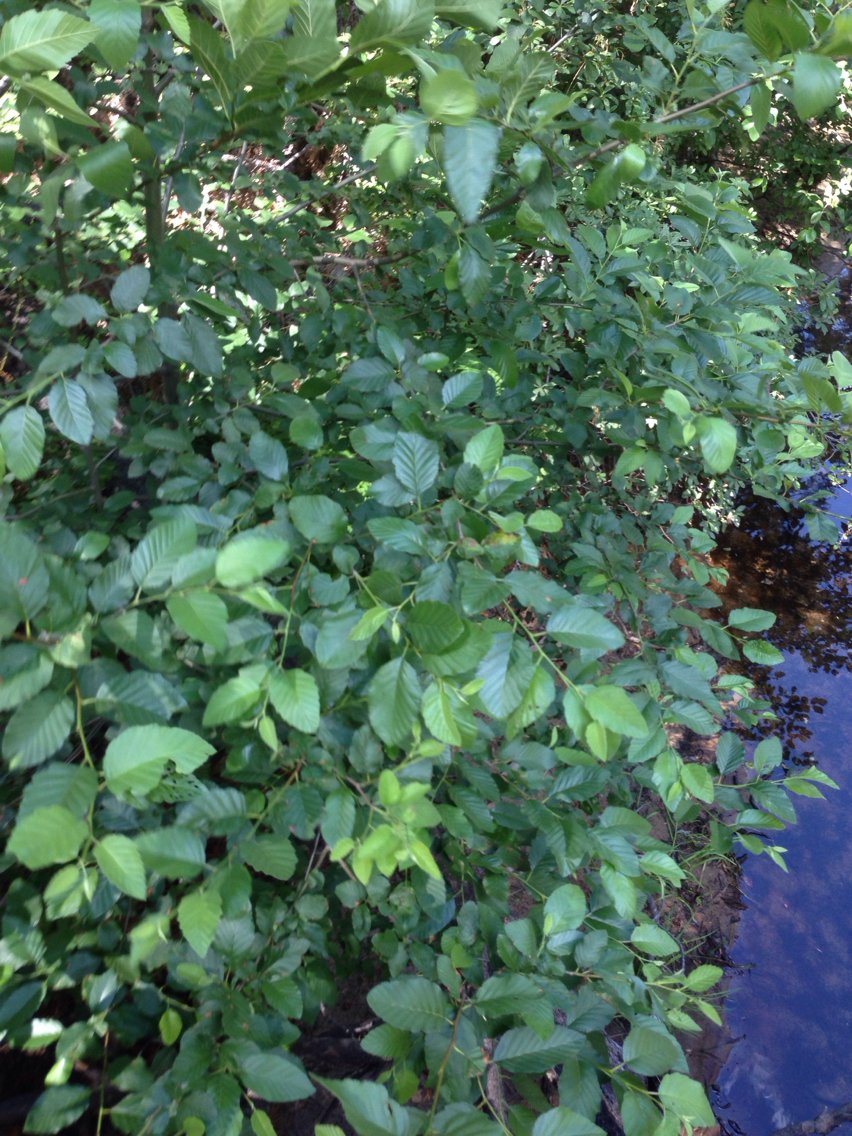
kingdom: Plantae
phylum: Tracheophyta
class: Magnoliopsida
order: Fagales
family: Betulaceae
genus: Alnus
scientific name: Alnus rhombifolia
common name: California alder
